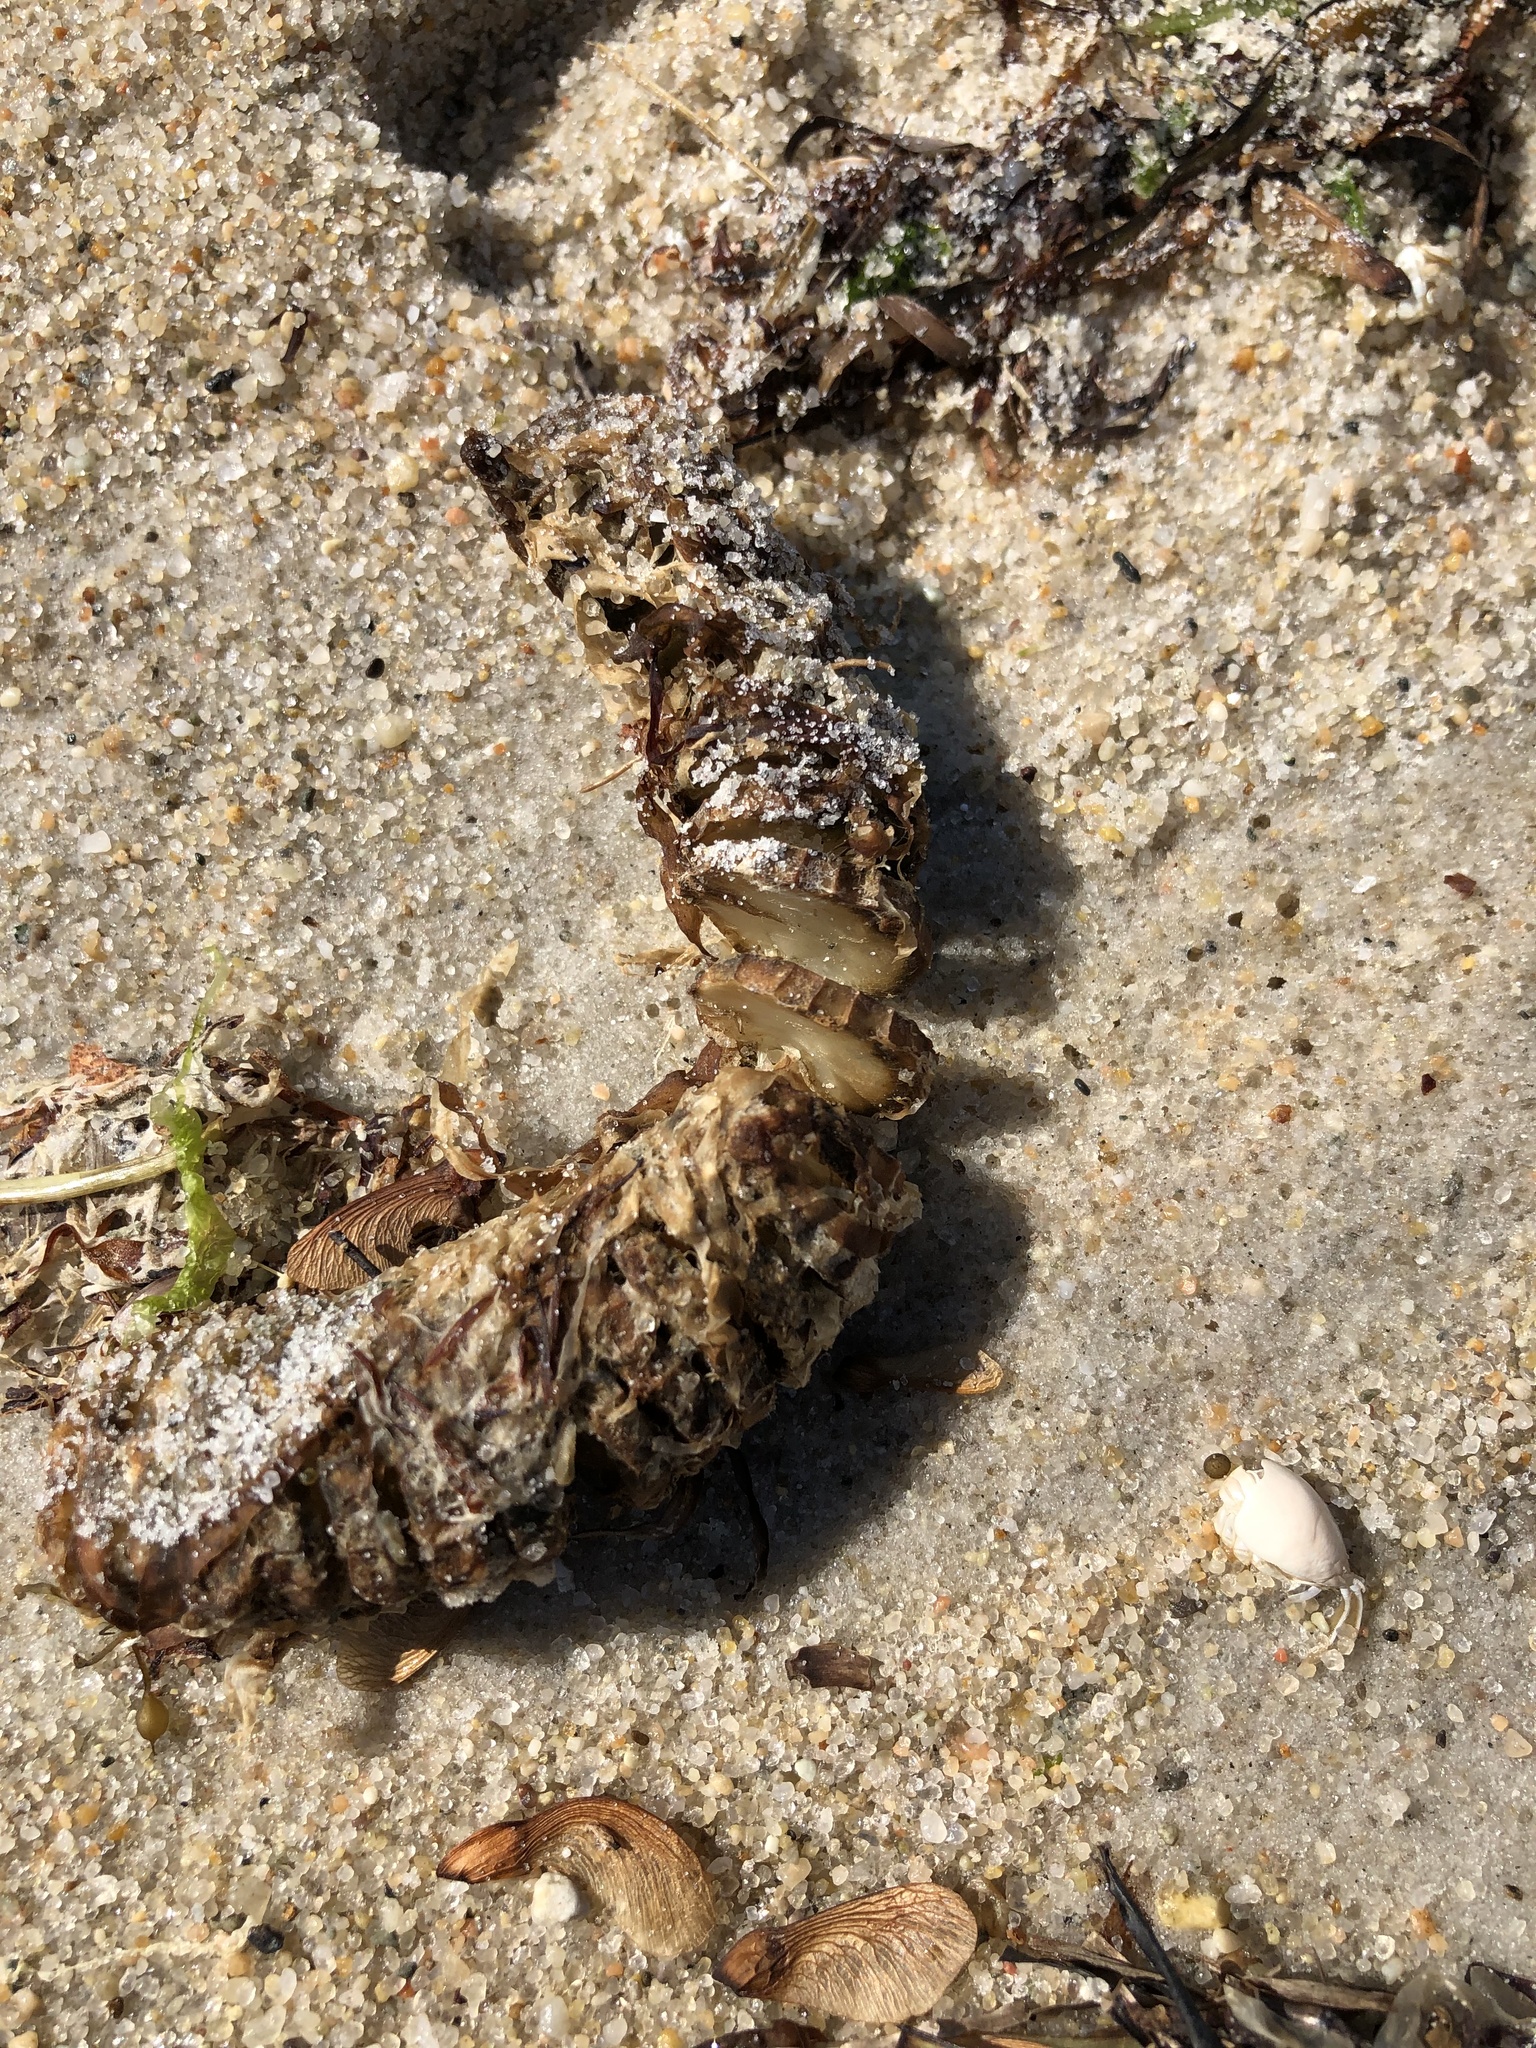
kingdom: Animalia
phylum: Mollusca
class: Gastropoda
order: Neogastropoda
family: Busyconidae
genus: Busycon
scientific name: Busycon carica
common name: Knobbed whelk
